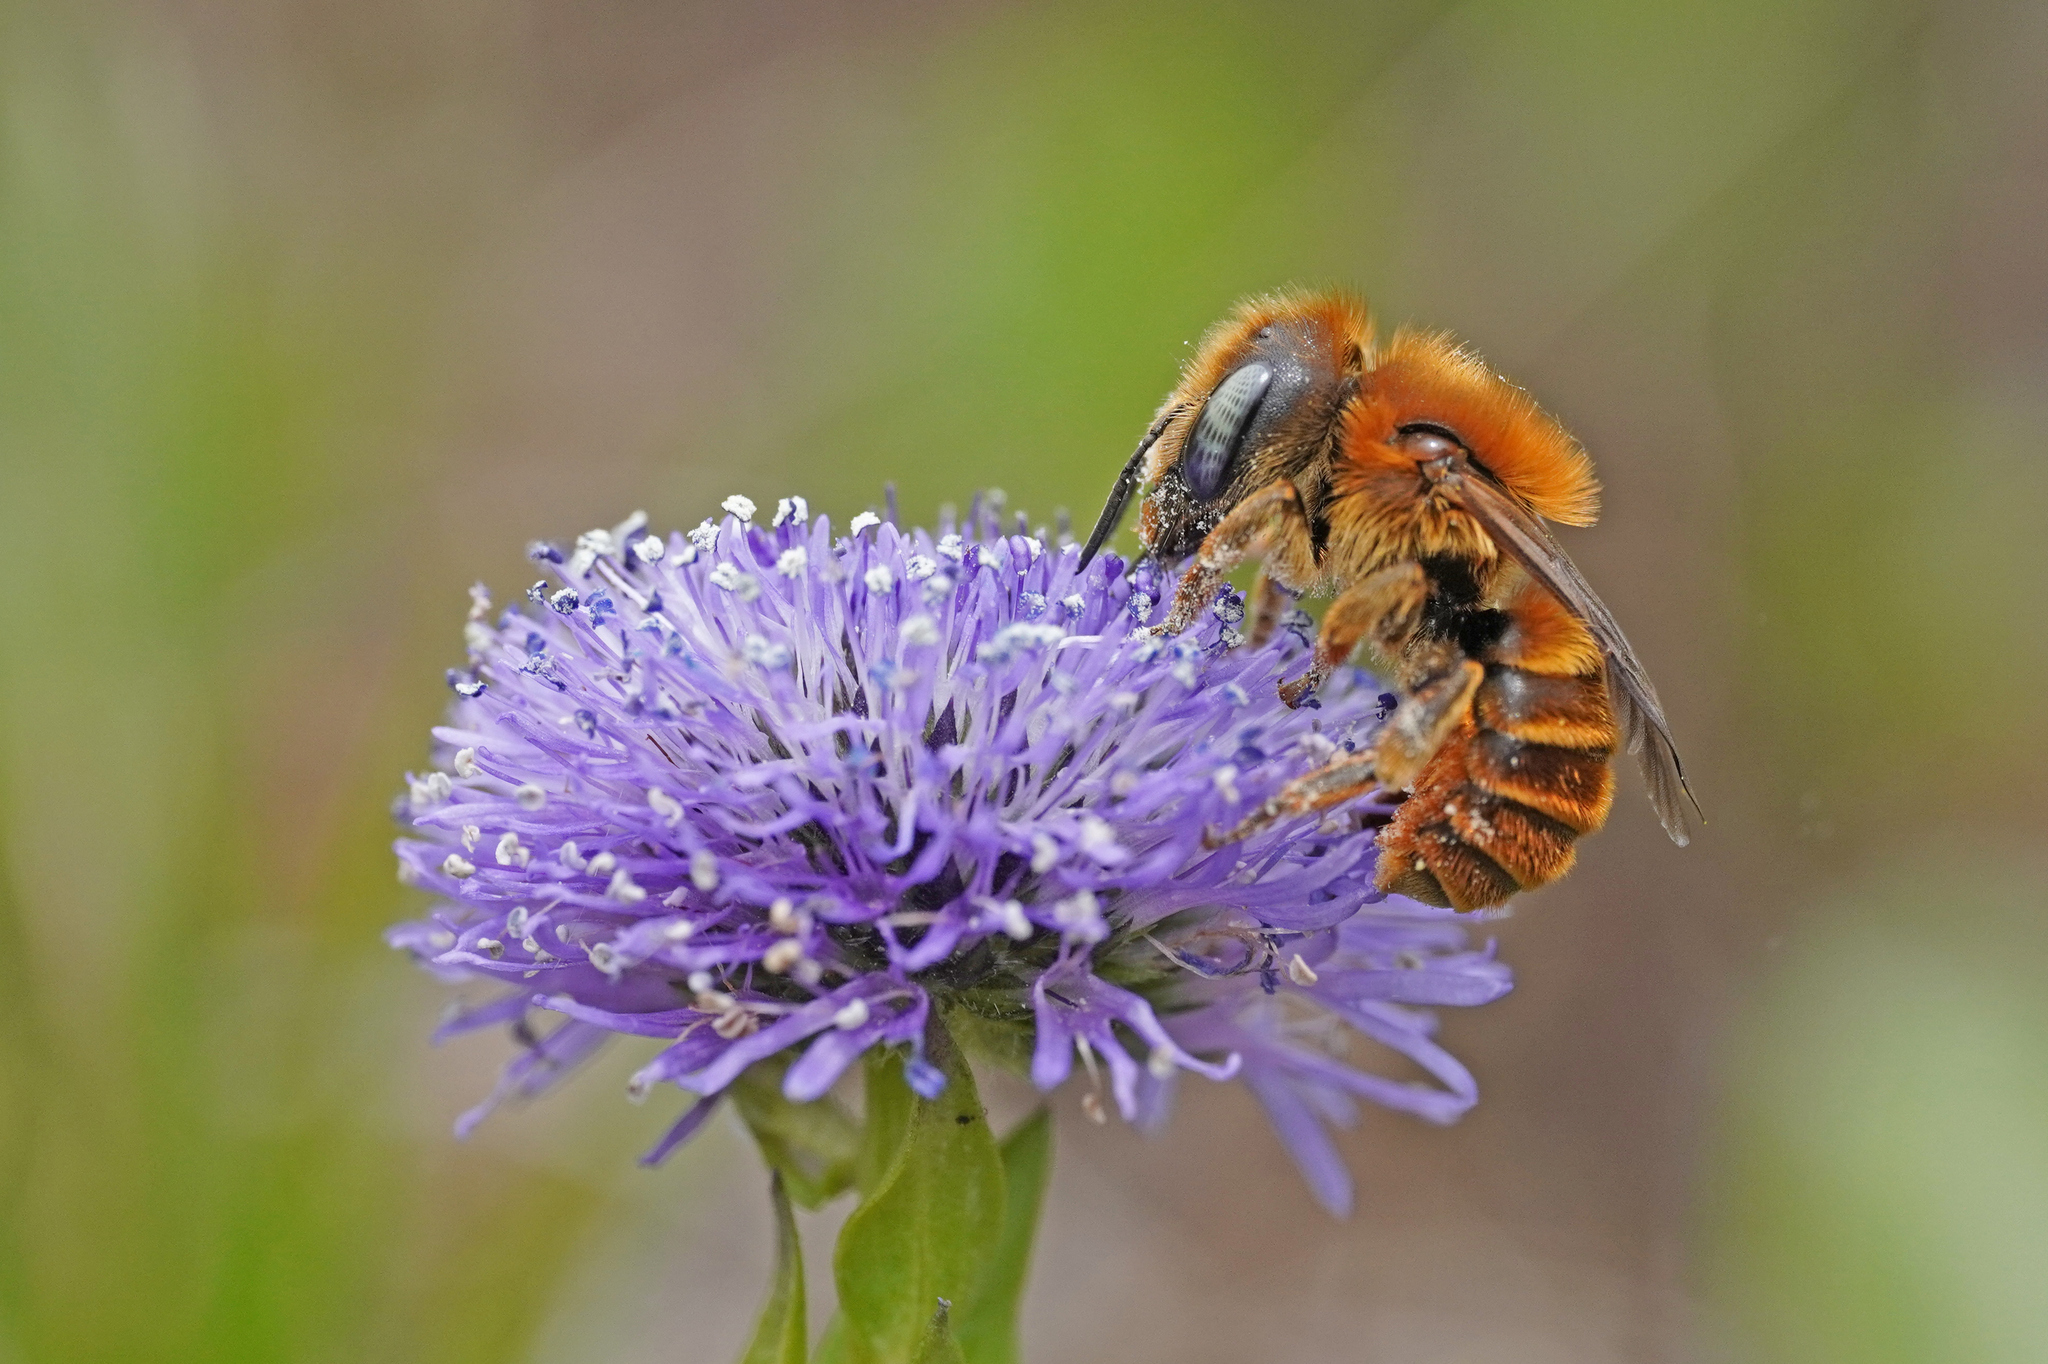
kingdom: Animalia
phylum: Arthropoda
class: Insecta
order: Hymenoptera
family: Megachilidae
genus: Osmia
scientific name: Osmia aurulenta
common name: Gold-fringed mason bee
